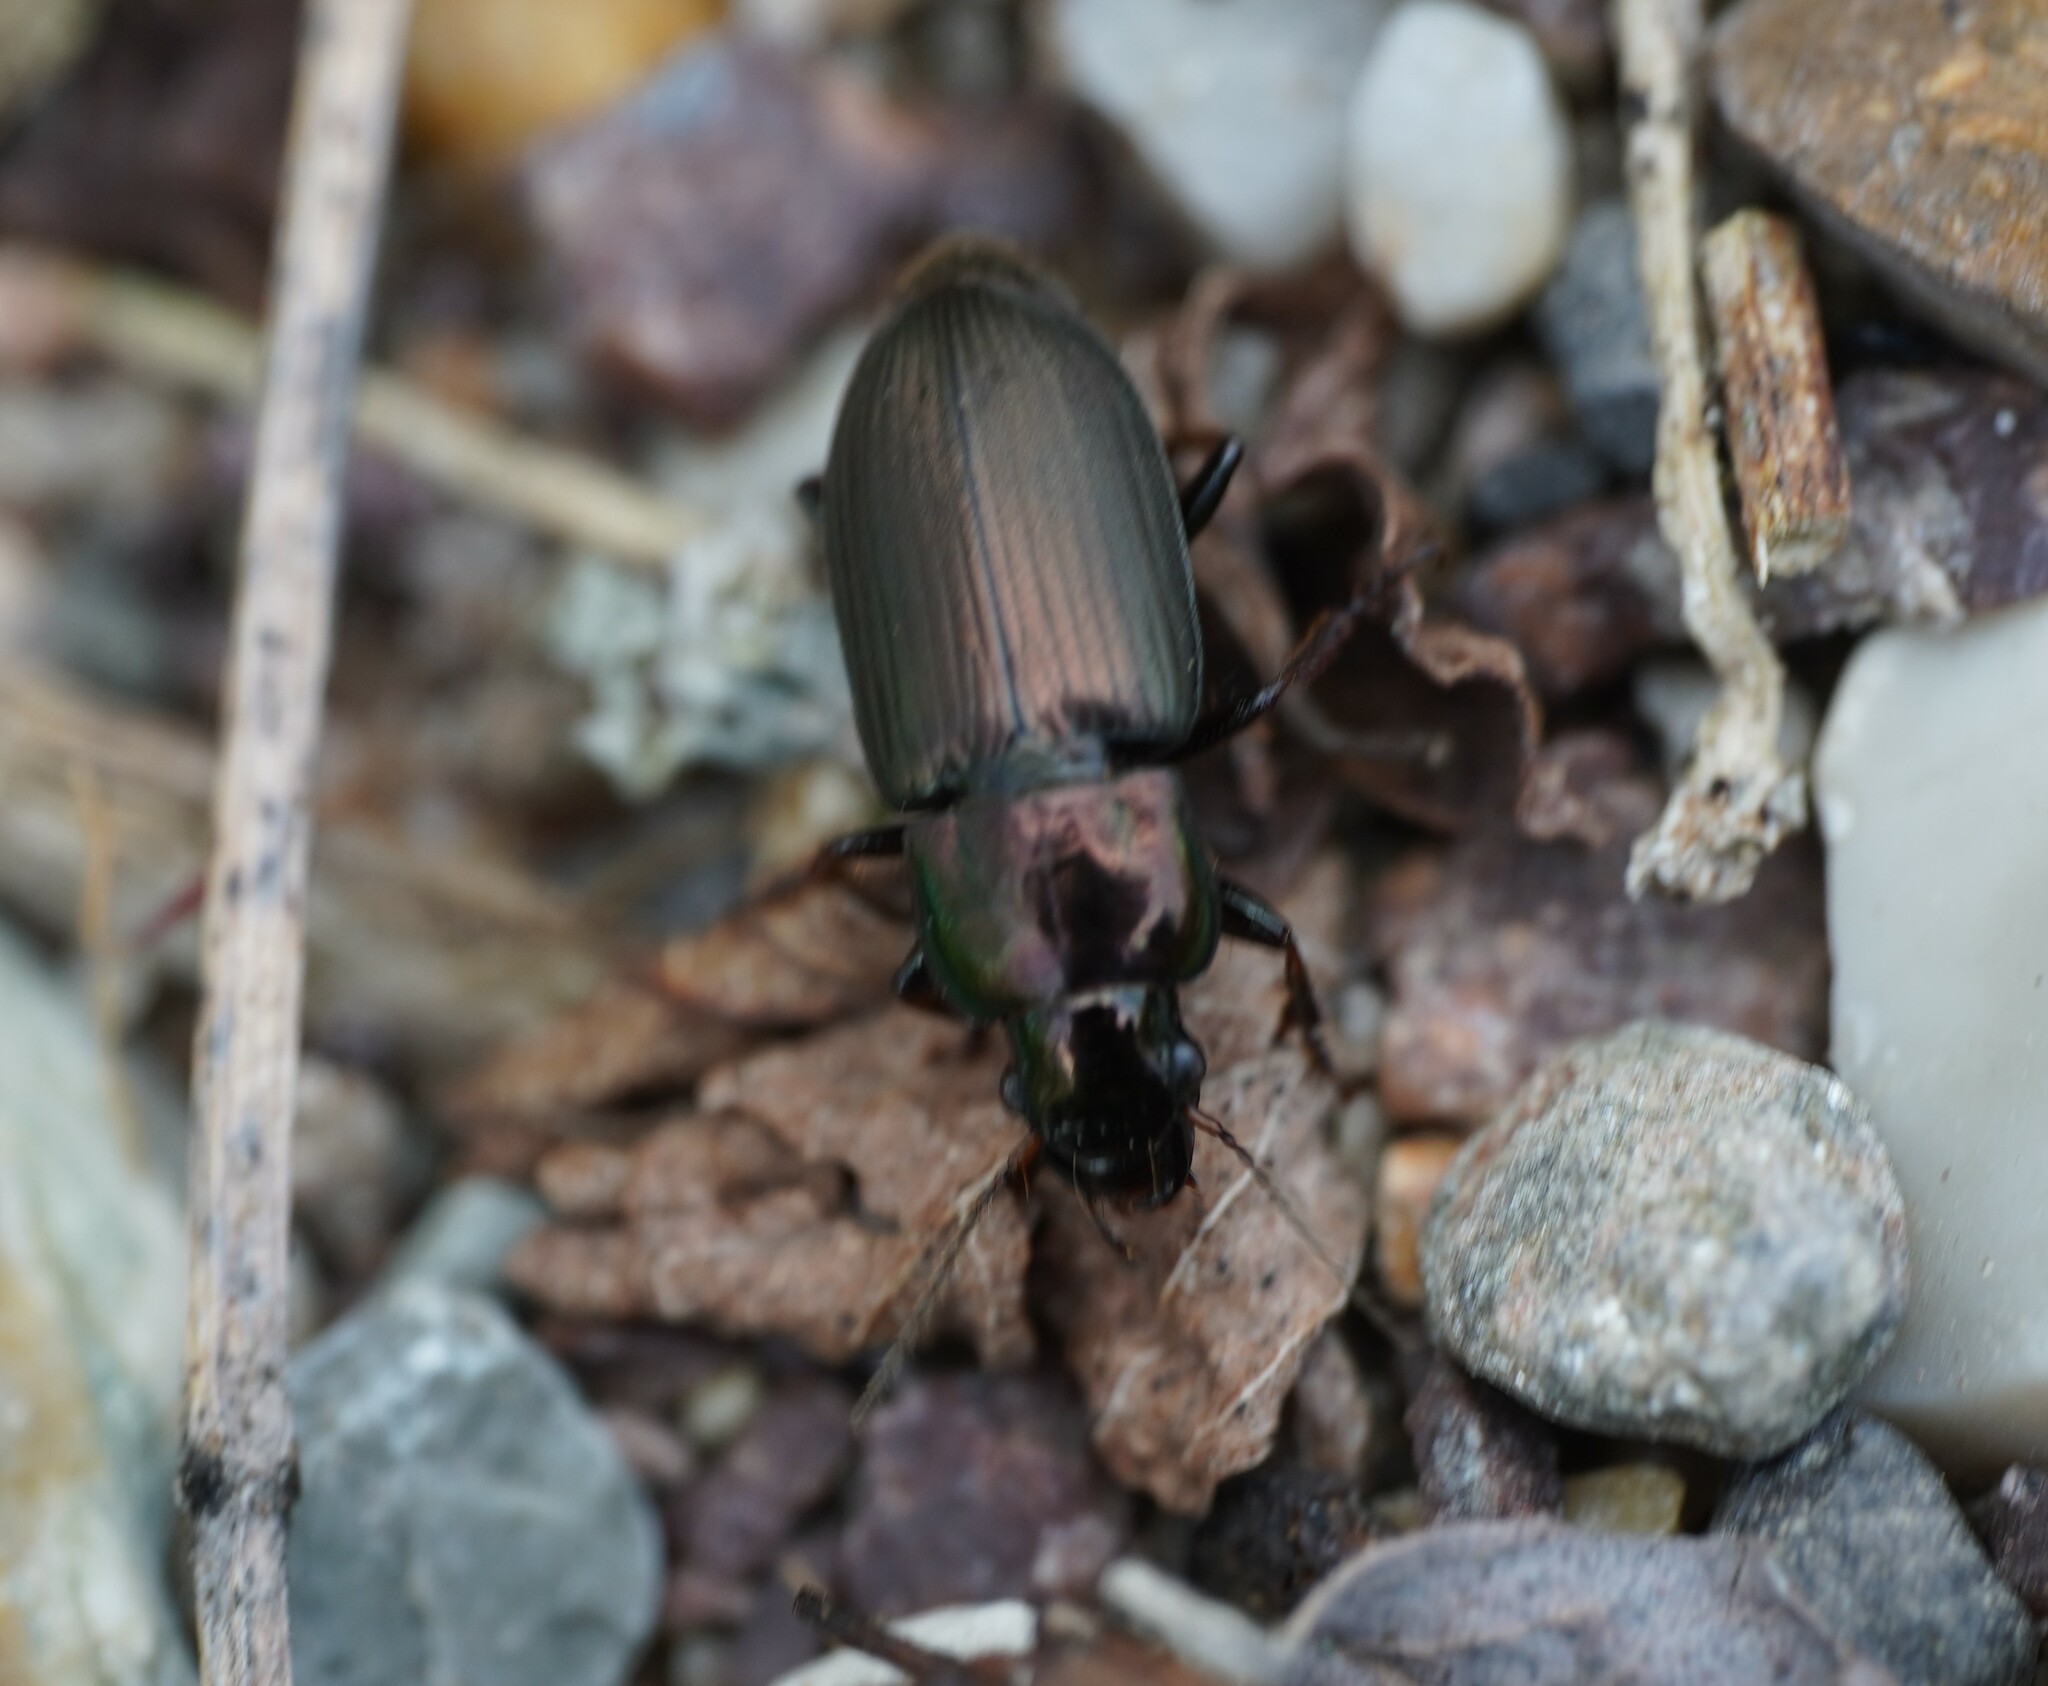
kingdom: Animalia
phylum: Arthropoda
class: Insecta
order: Coleoptera
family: Carabidae
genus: Harpalus
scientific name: Harpalus distinguendus
